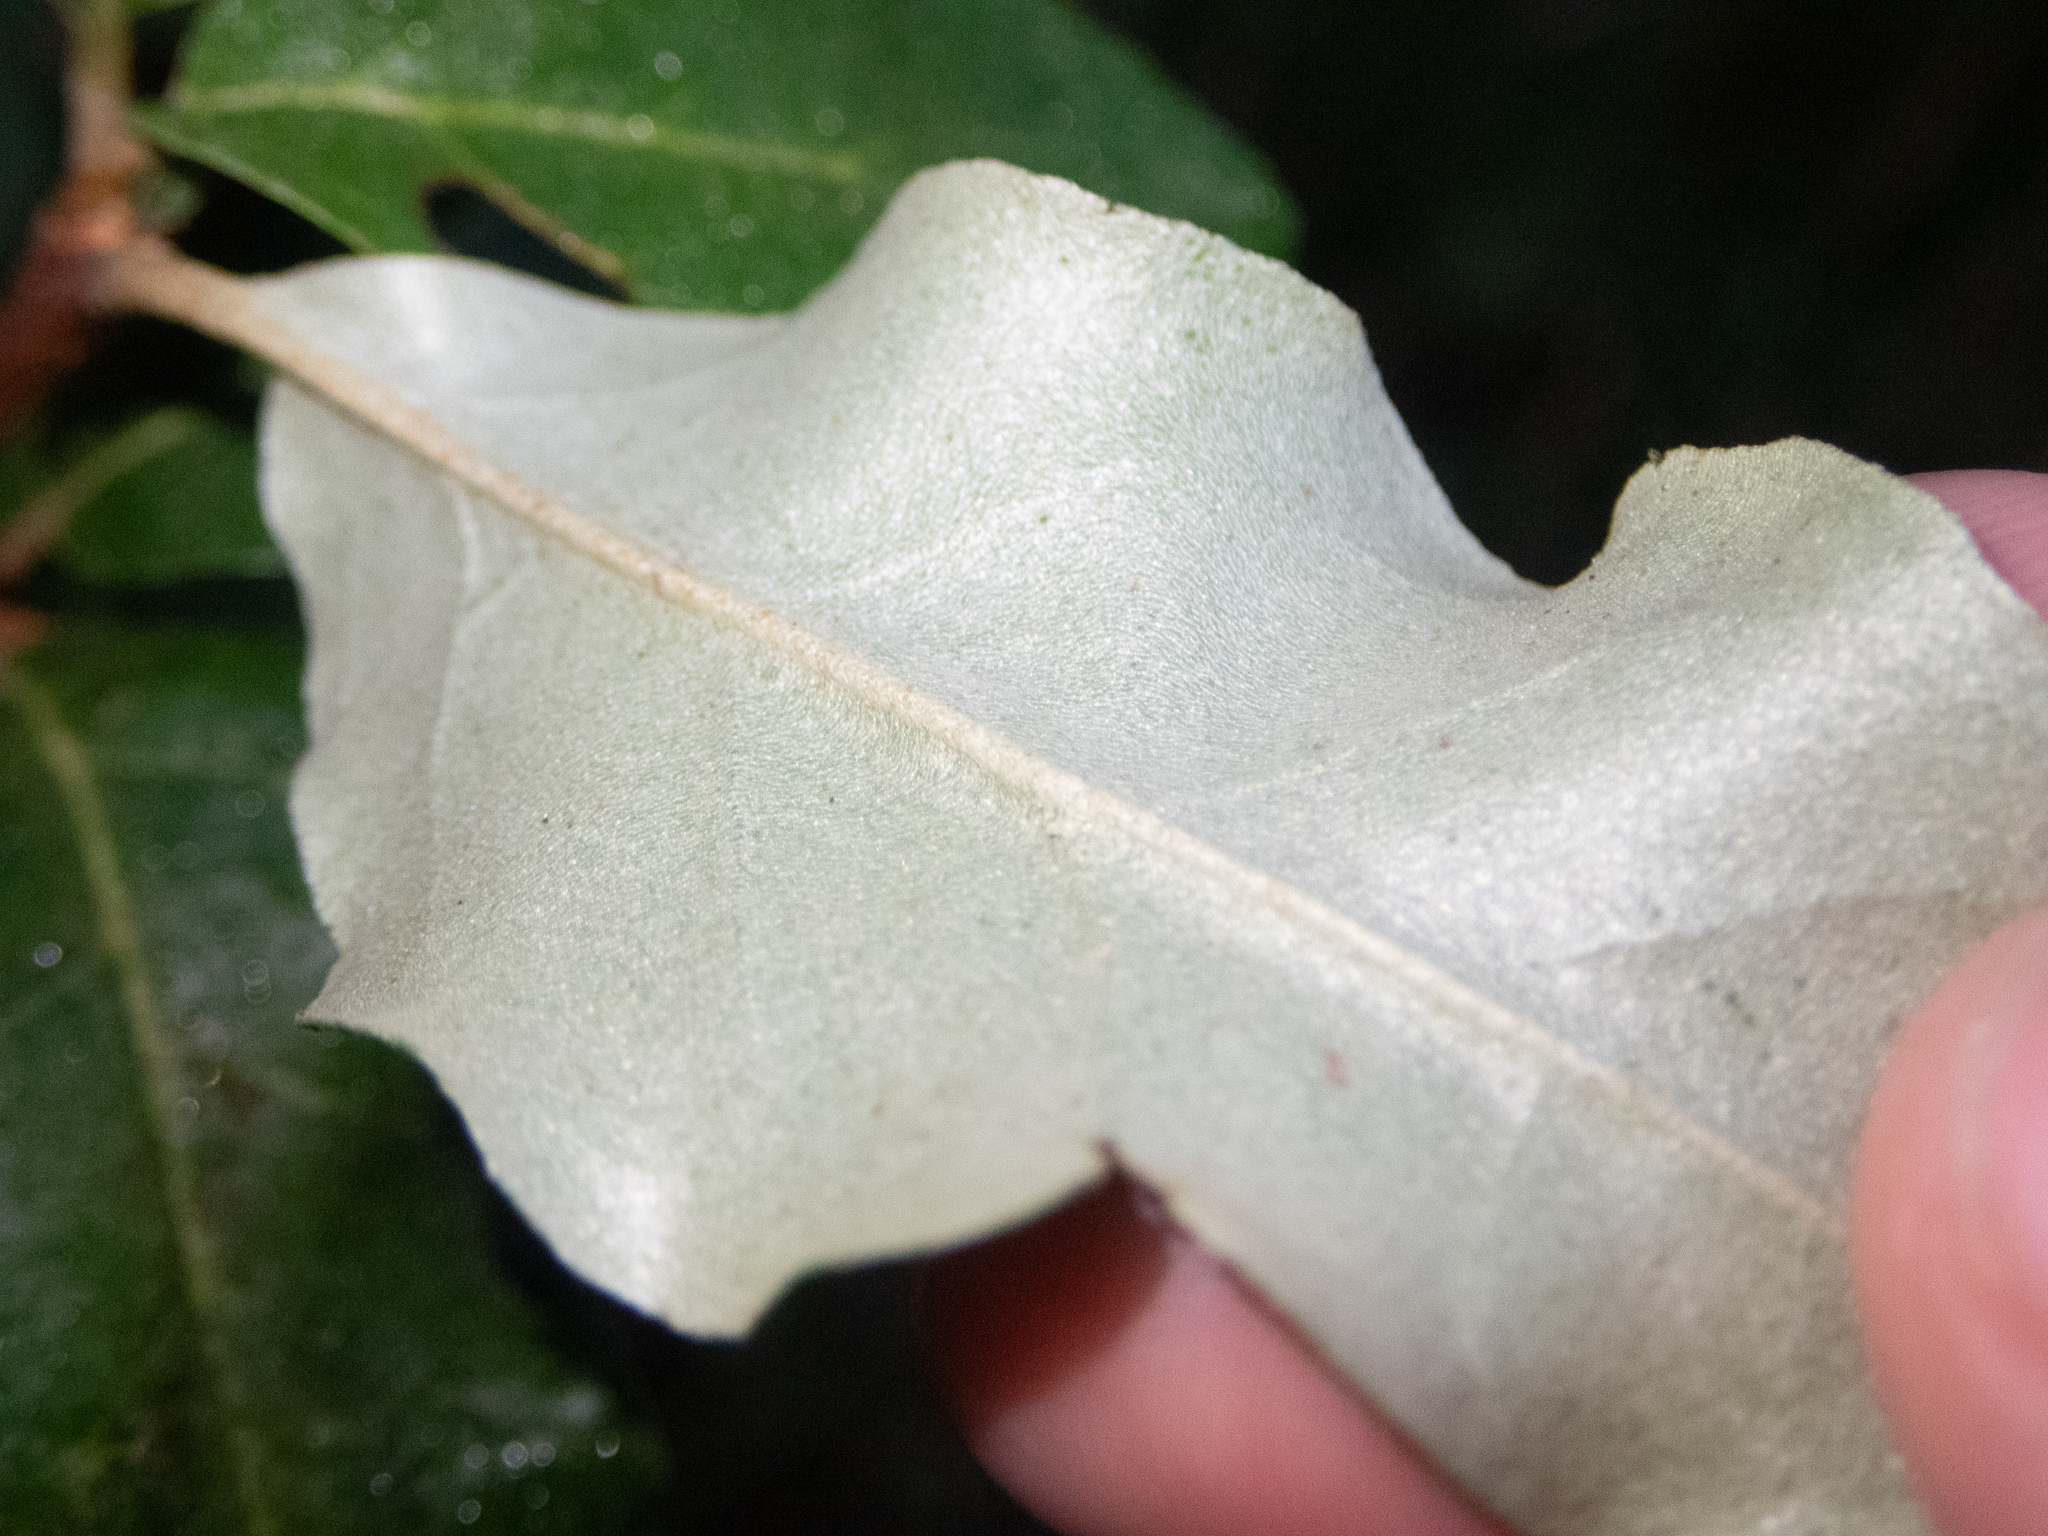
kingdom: Plantae
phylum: Tracheophyta
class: Magnoliopsida
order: Rosales
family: Elaeagnaceae
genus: Elaeagnus
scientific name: Elaeagnus umbellata
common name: Autumn olive
